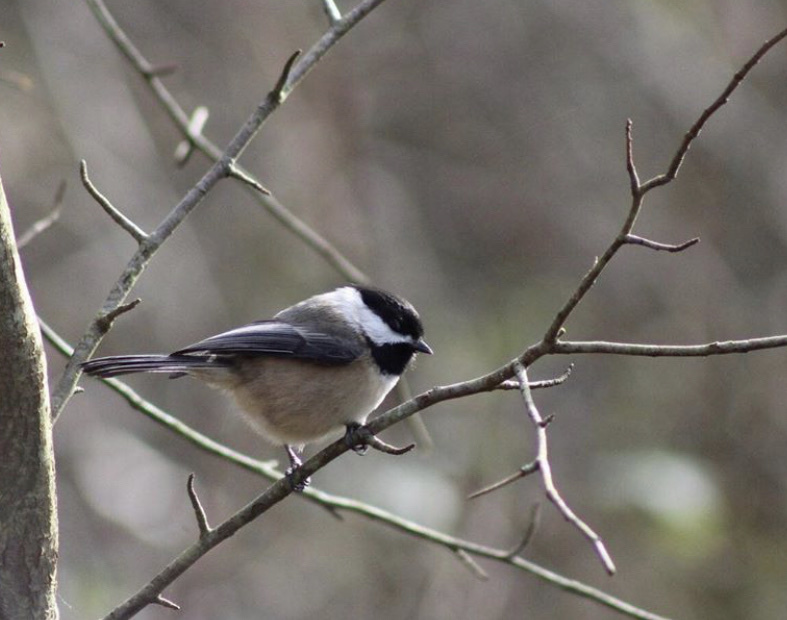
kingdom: Animalia
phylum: Chordata
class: Aves
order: Passeriformes
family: Paridae
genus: Poecile
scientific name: Poecile atricapillus
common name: Black-capped chickadee
